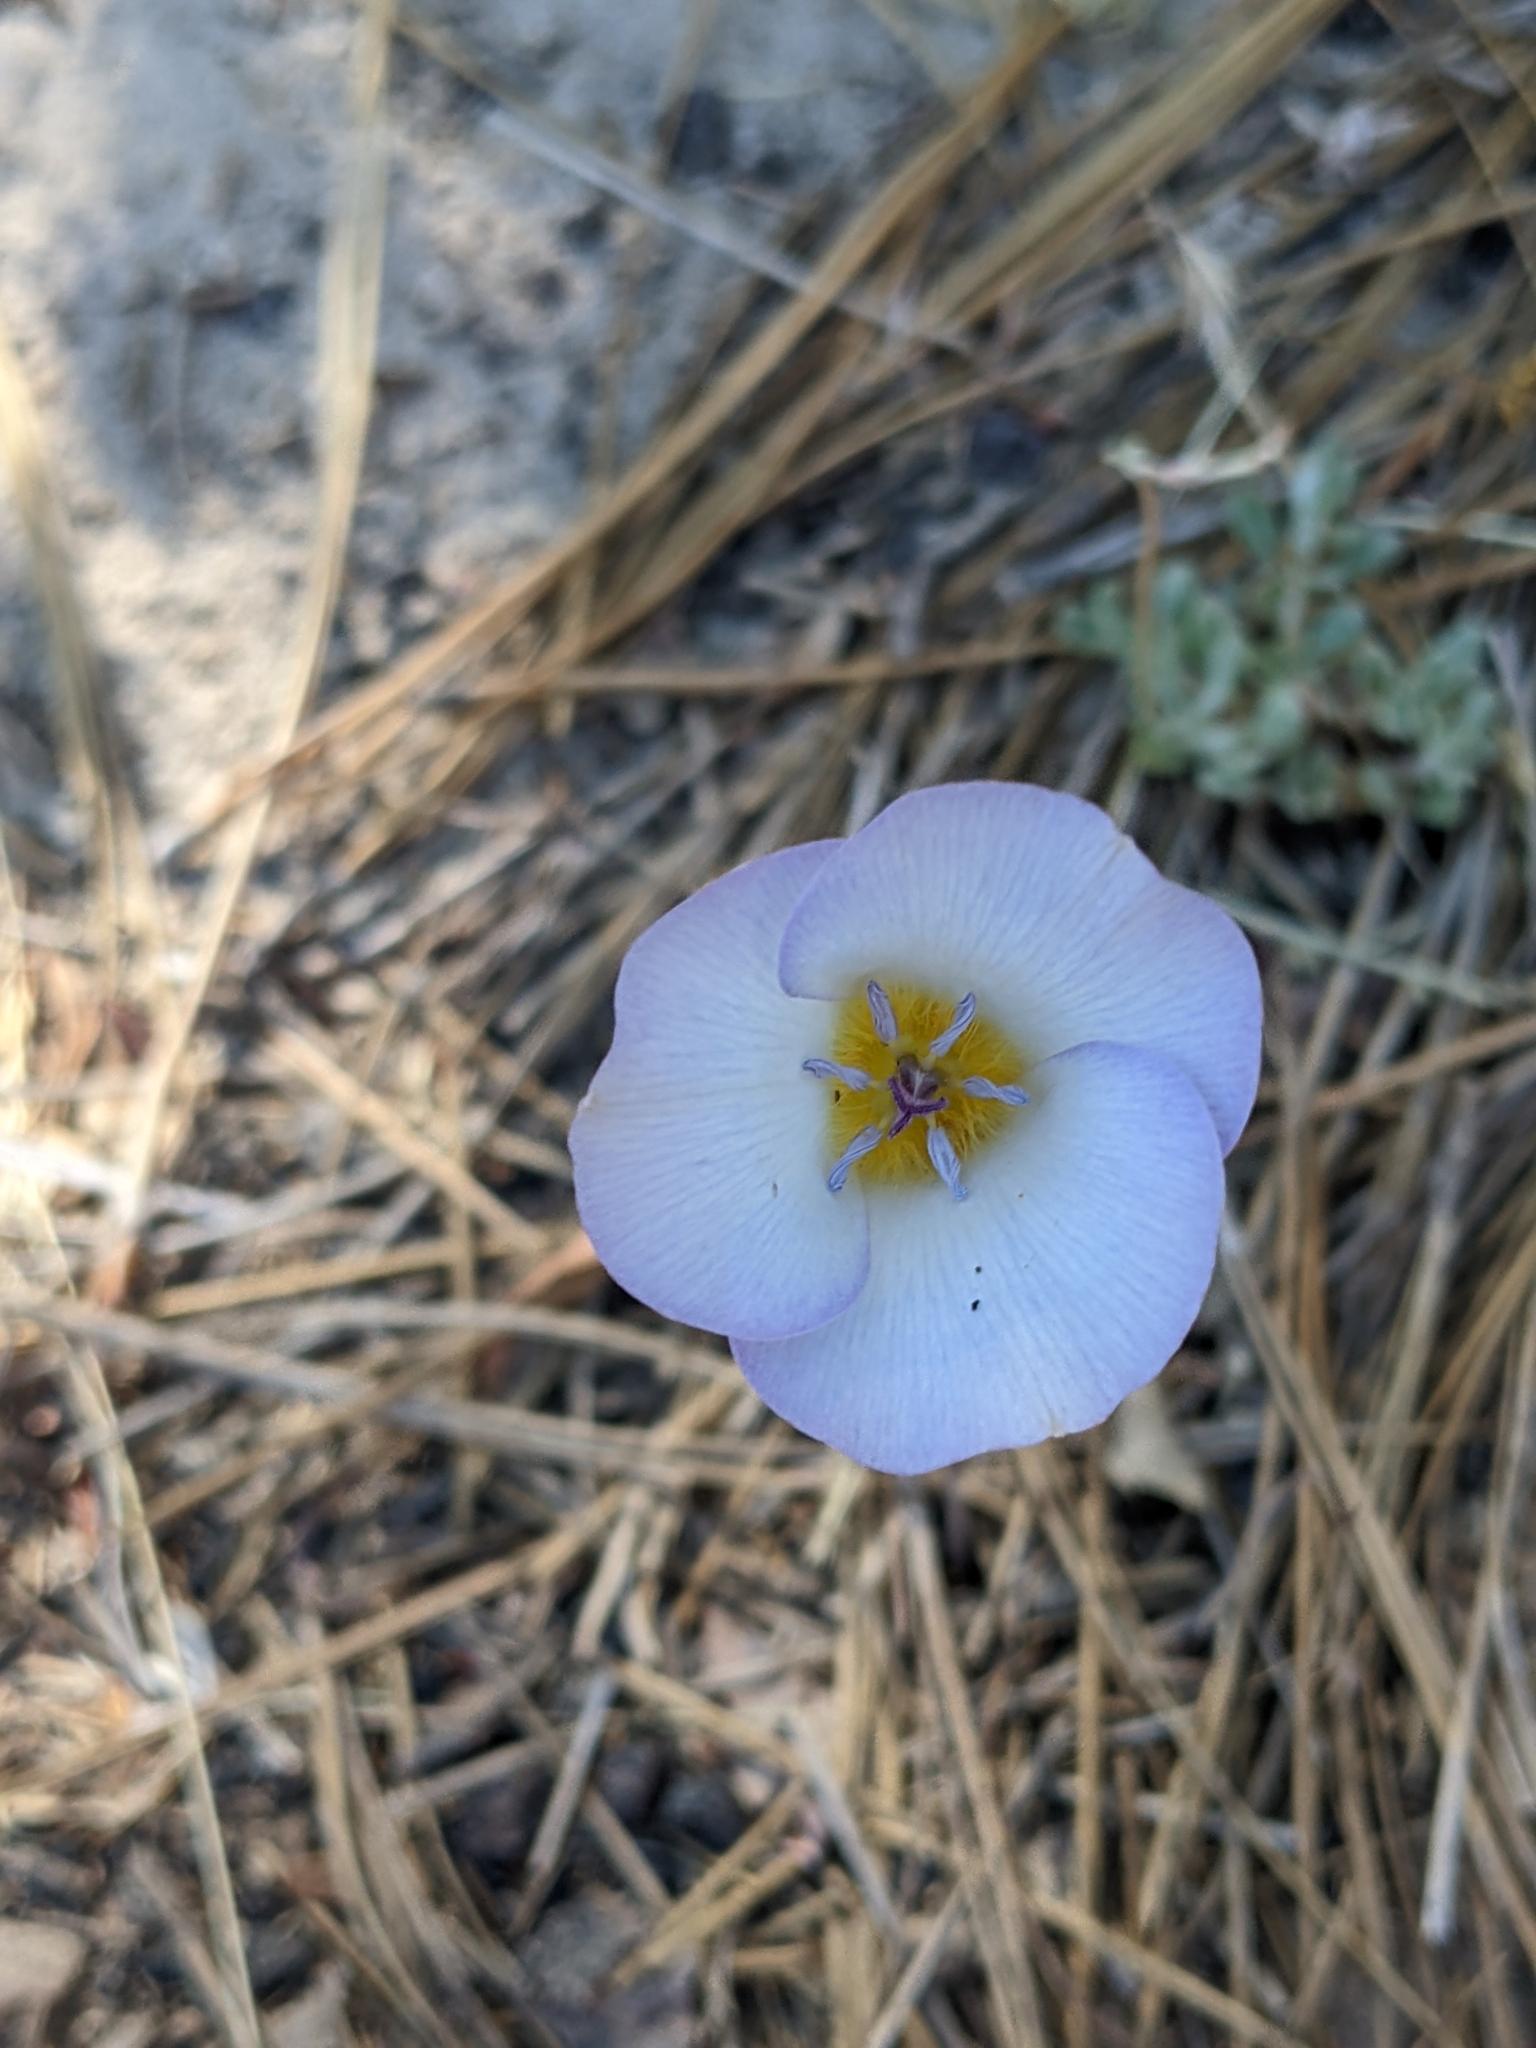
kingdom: Plantae
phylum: Tracheophyta
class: Liliopsida
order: Liliales
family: Liliaceae
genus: Calochortus
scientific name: Calochortus invenustus
